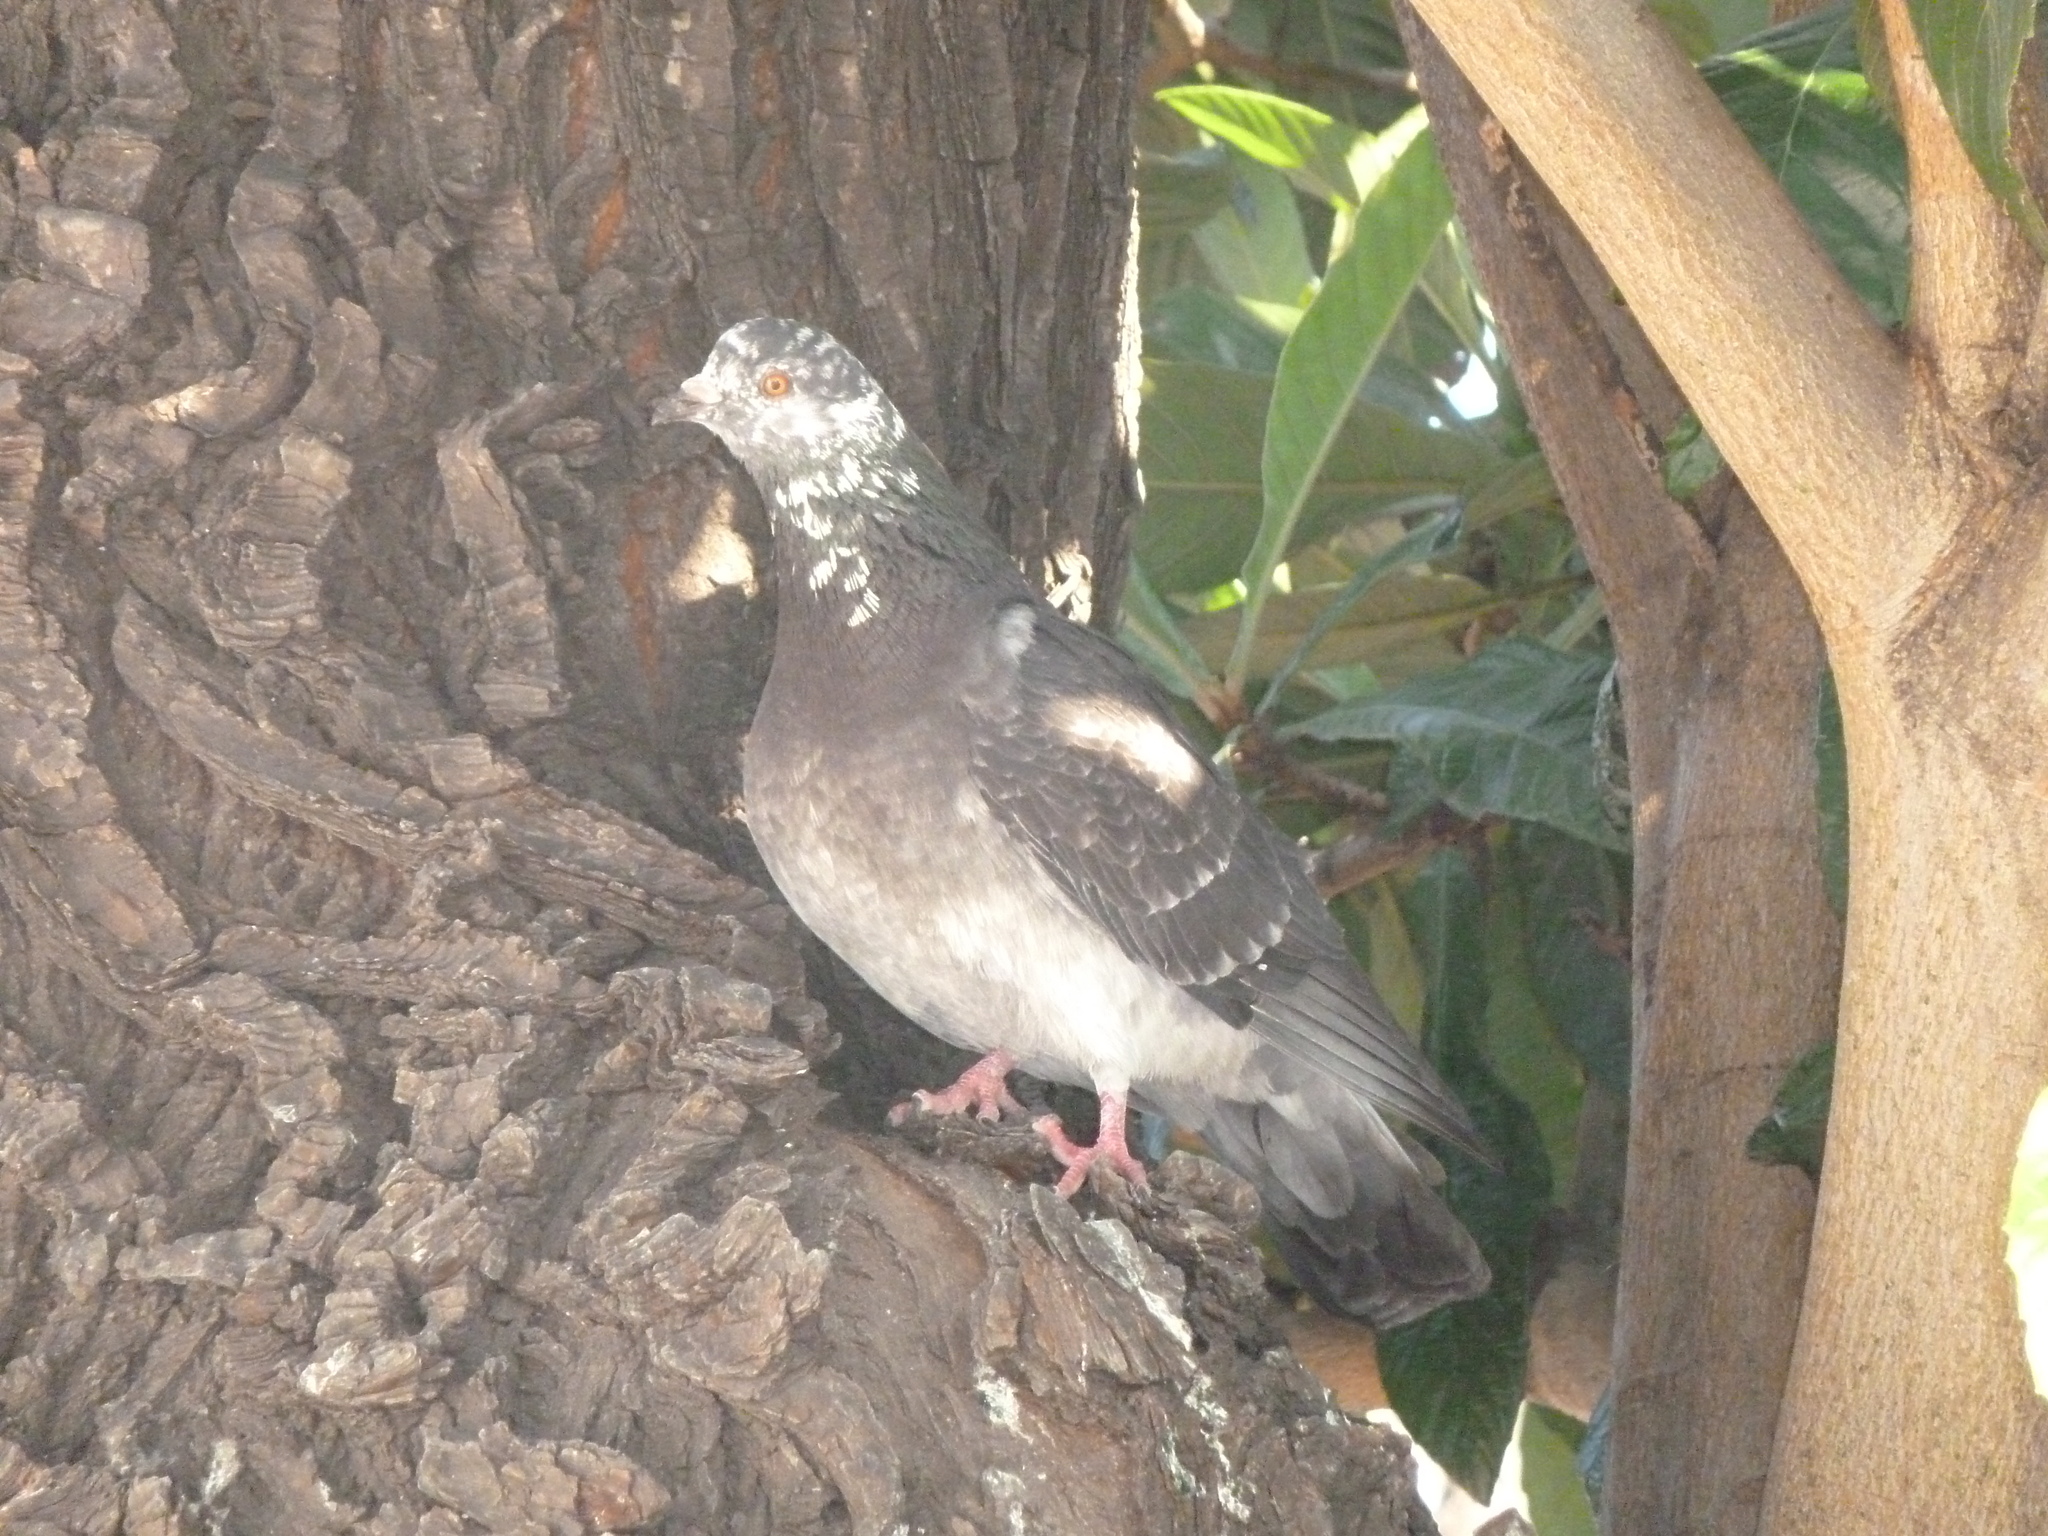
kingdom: Animalia
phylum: Chordata
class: Aves
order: Columbiformes
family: Columbidae
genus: Columba
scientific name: Columba livia
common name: Rock pigeon
